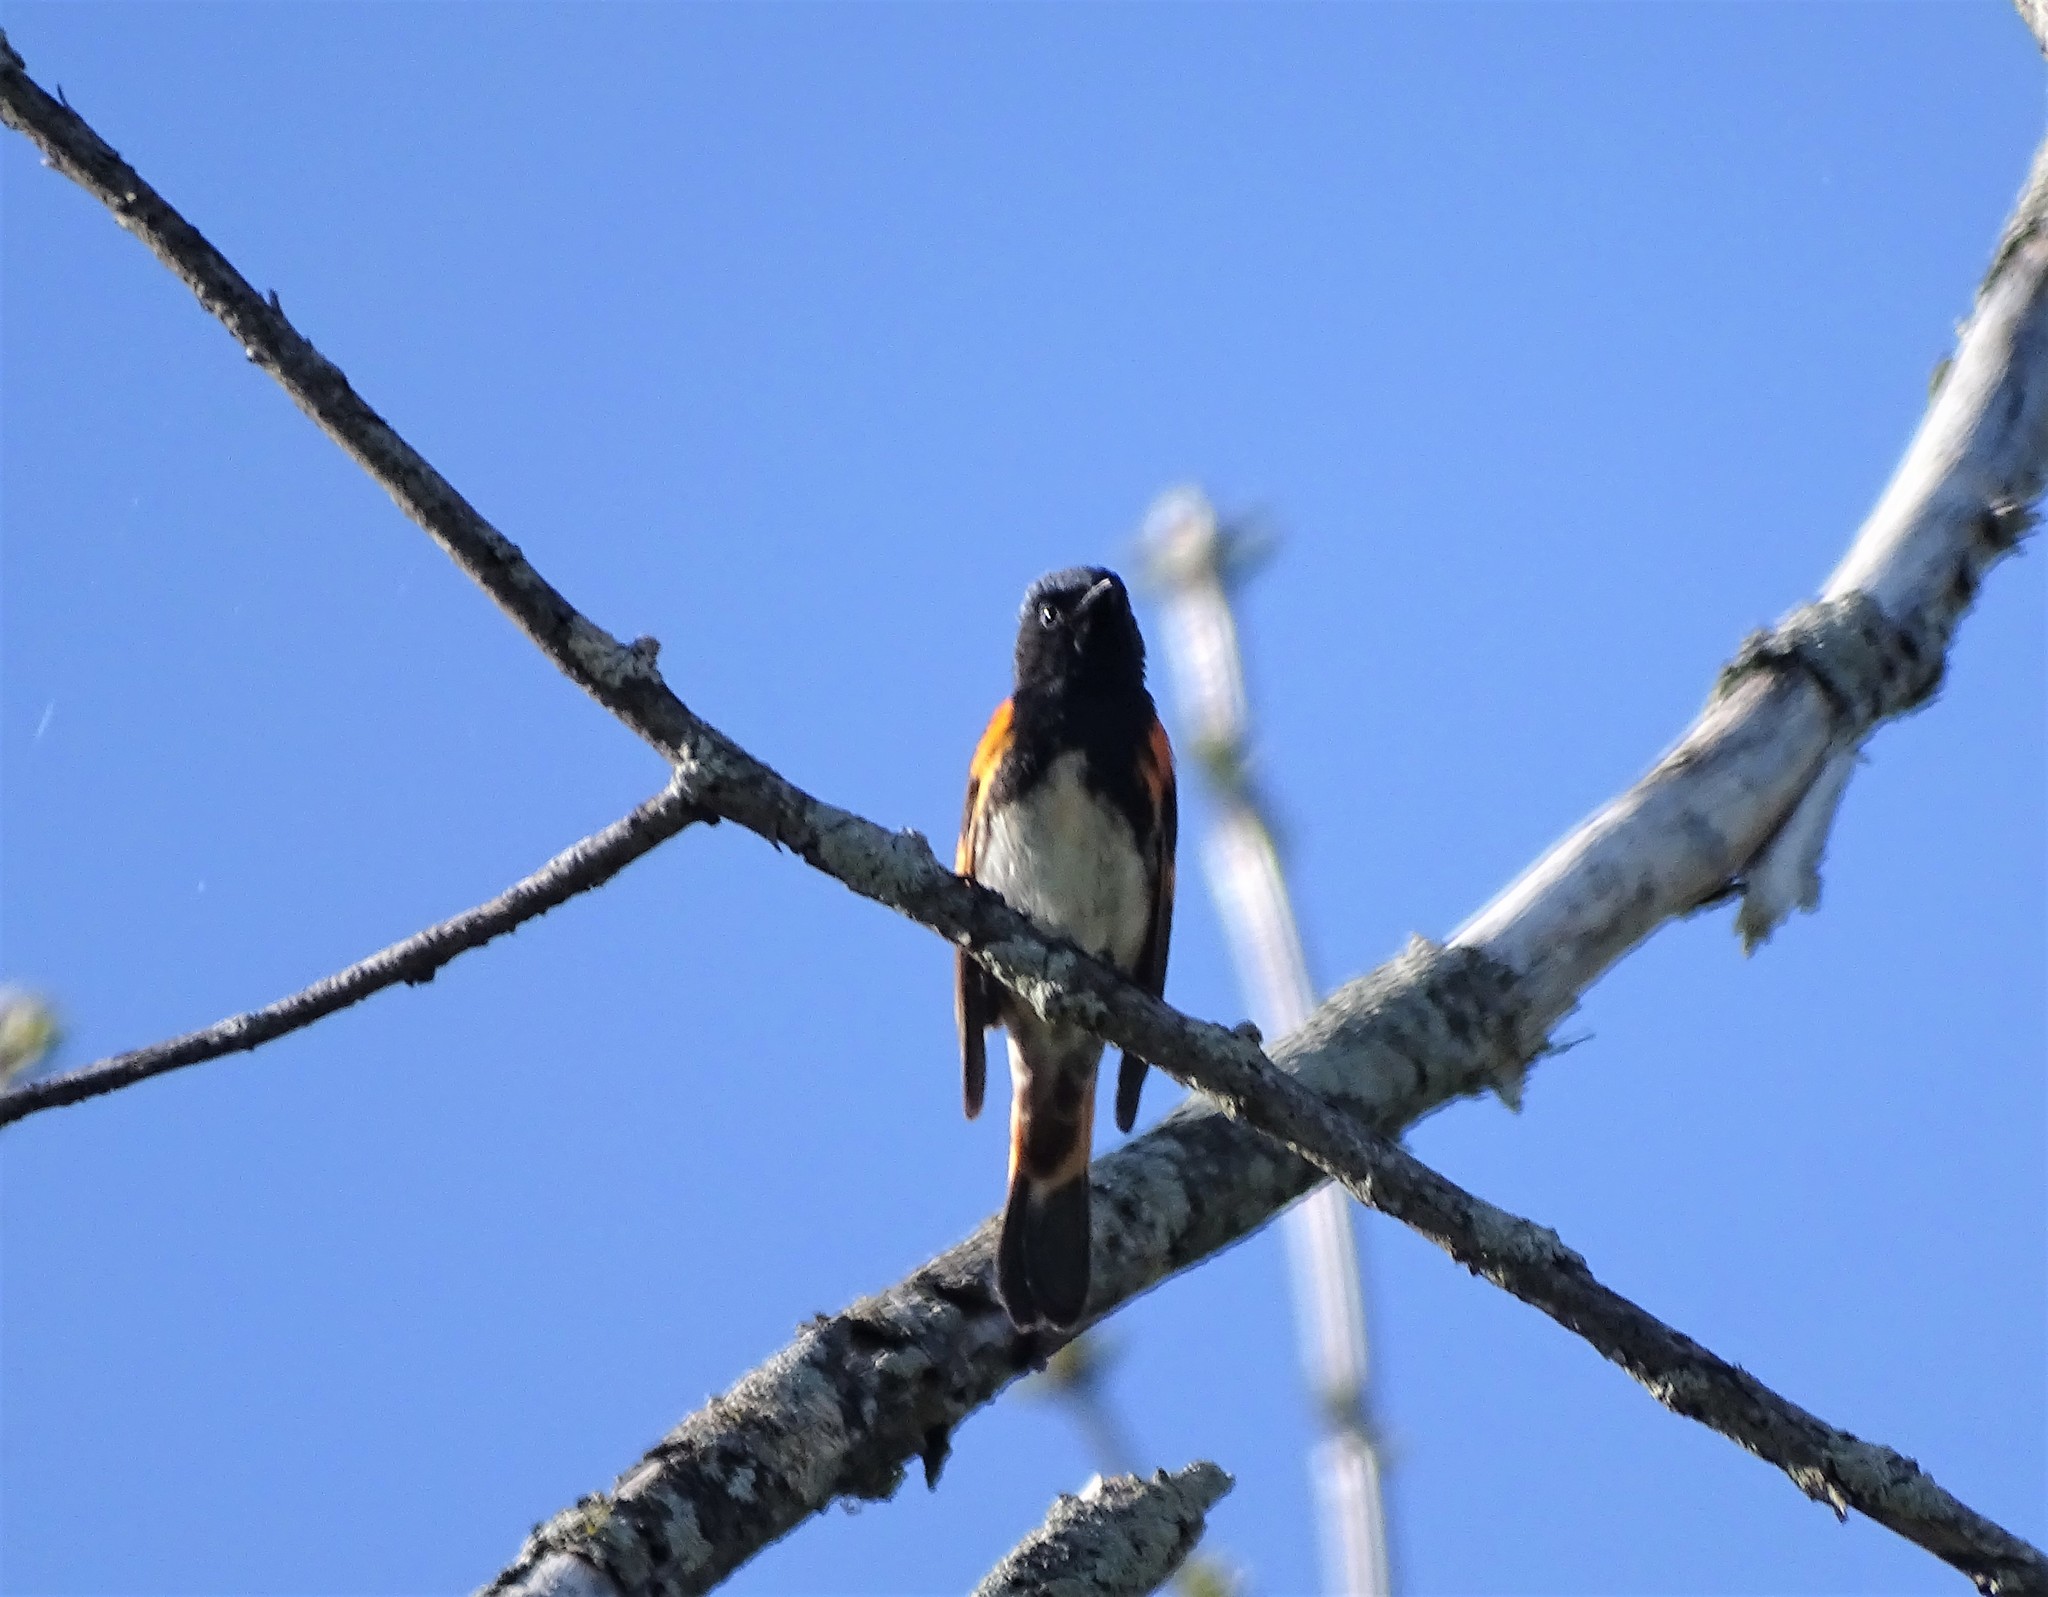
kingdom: Animalia
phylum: Chordata
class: Aves
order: Passeriformes
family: Parulidae
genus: Setophaga
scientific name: Setophaga ruticilla
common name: American redstart
